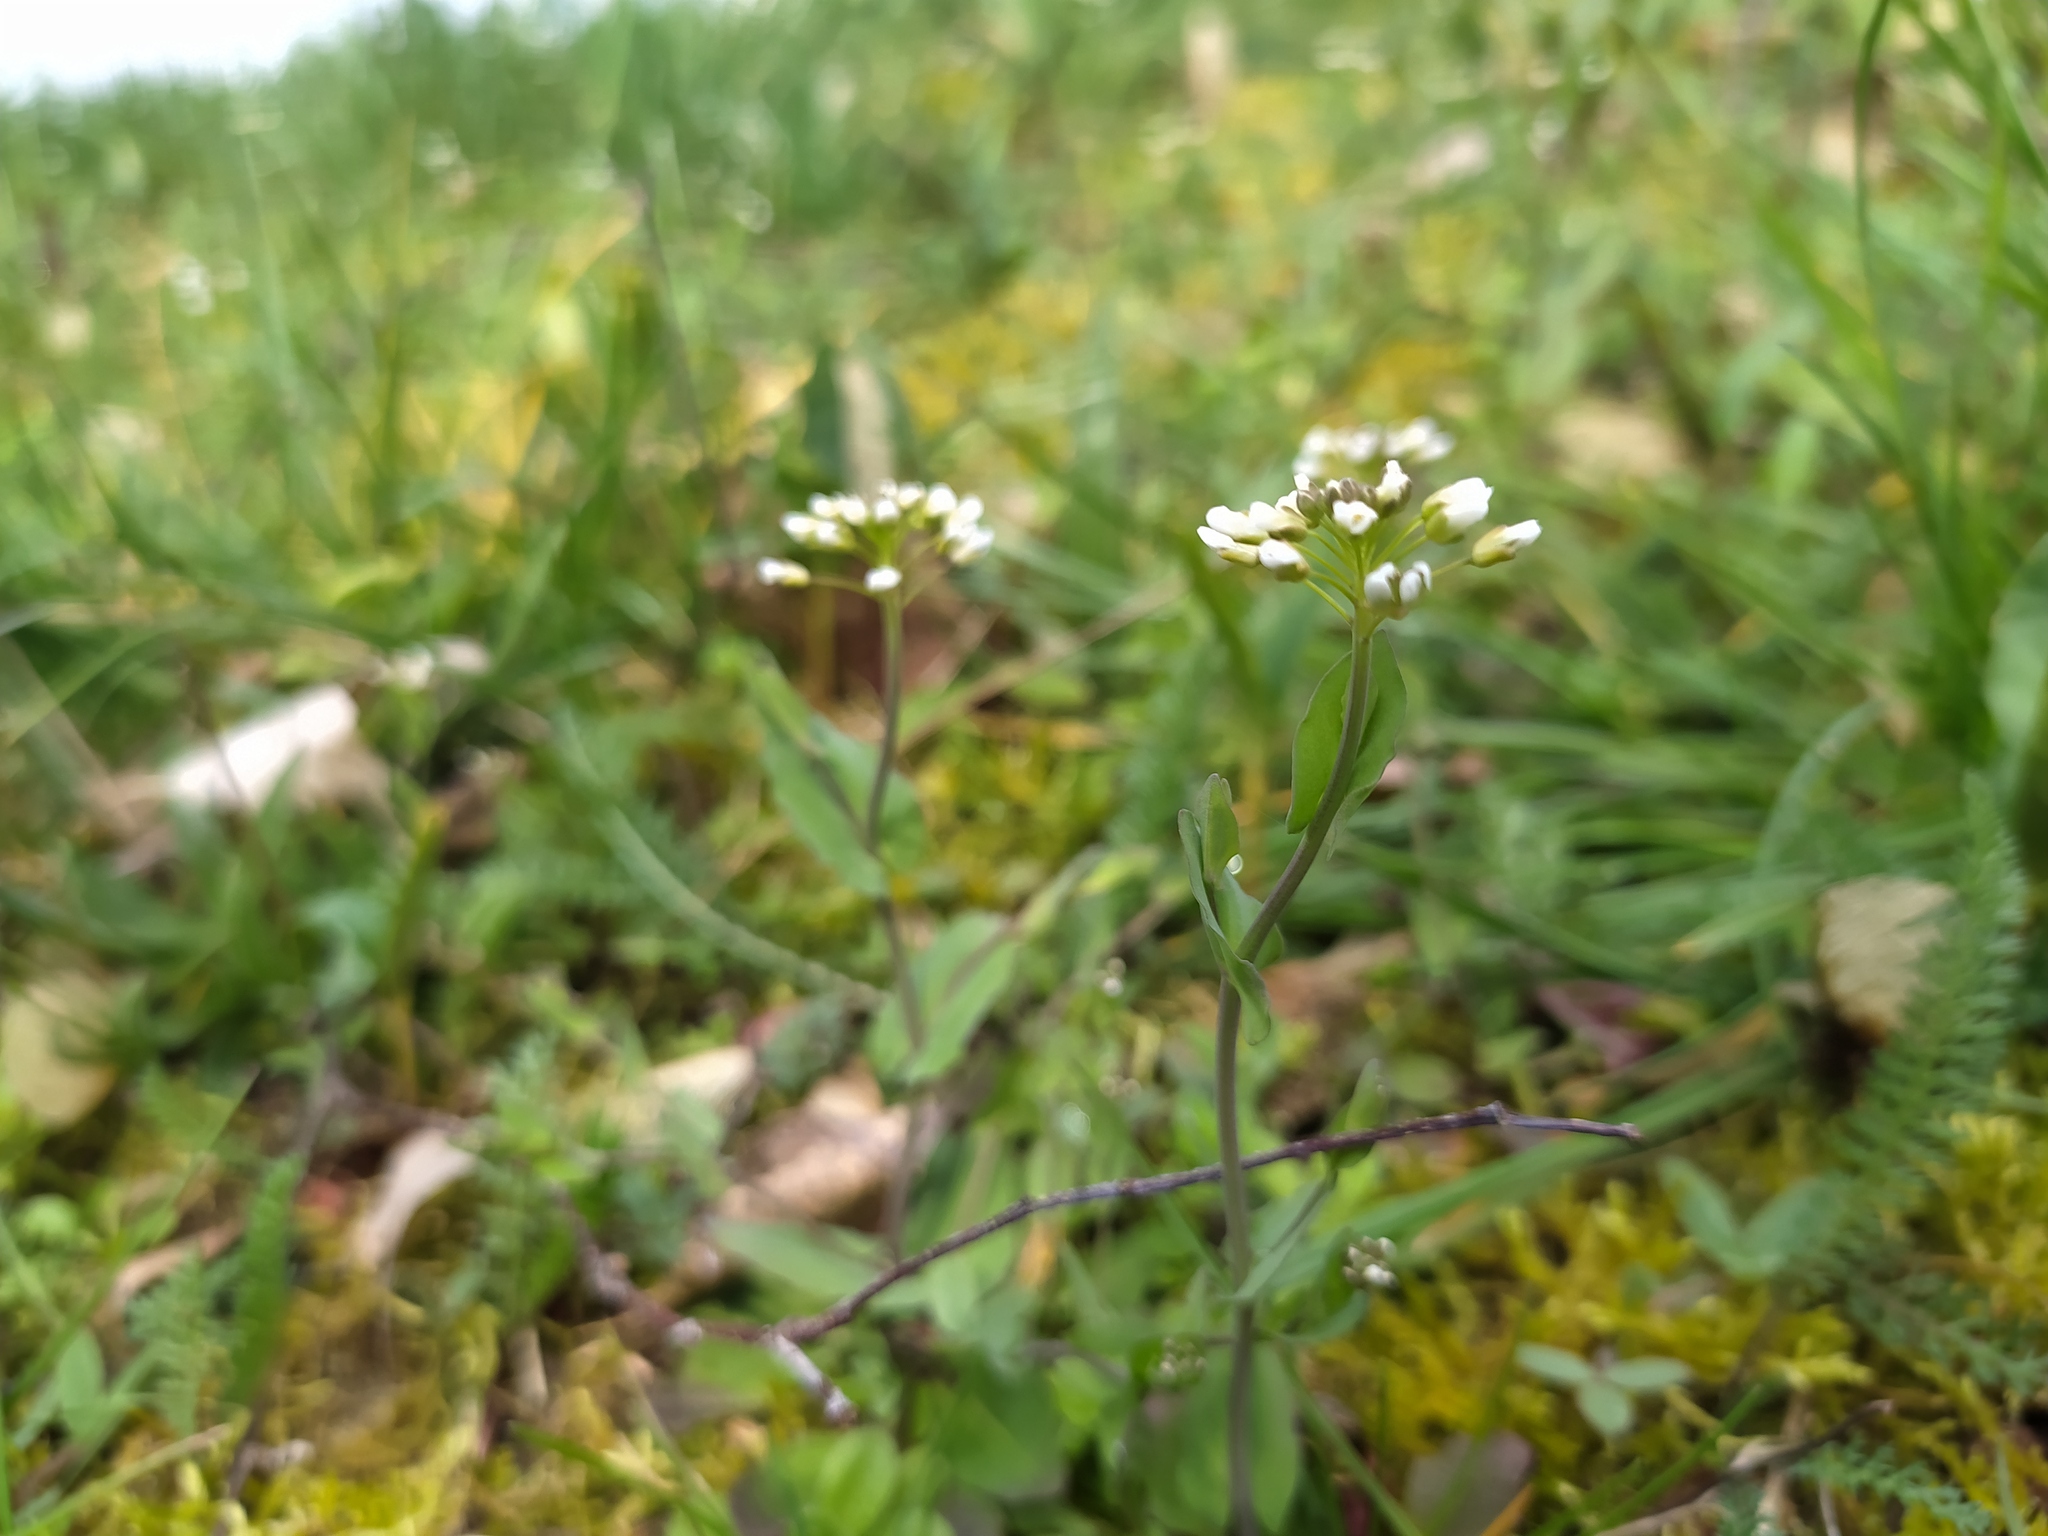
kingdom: Plantae
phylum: Tracheophyta
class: Magnoliopsida
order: Brassicales
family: Brassicaceae
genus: Noccaea
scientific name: Noccaea perfoliata
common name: Perfoliate pennycress
